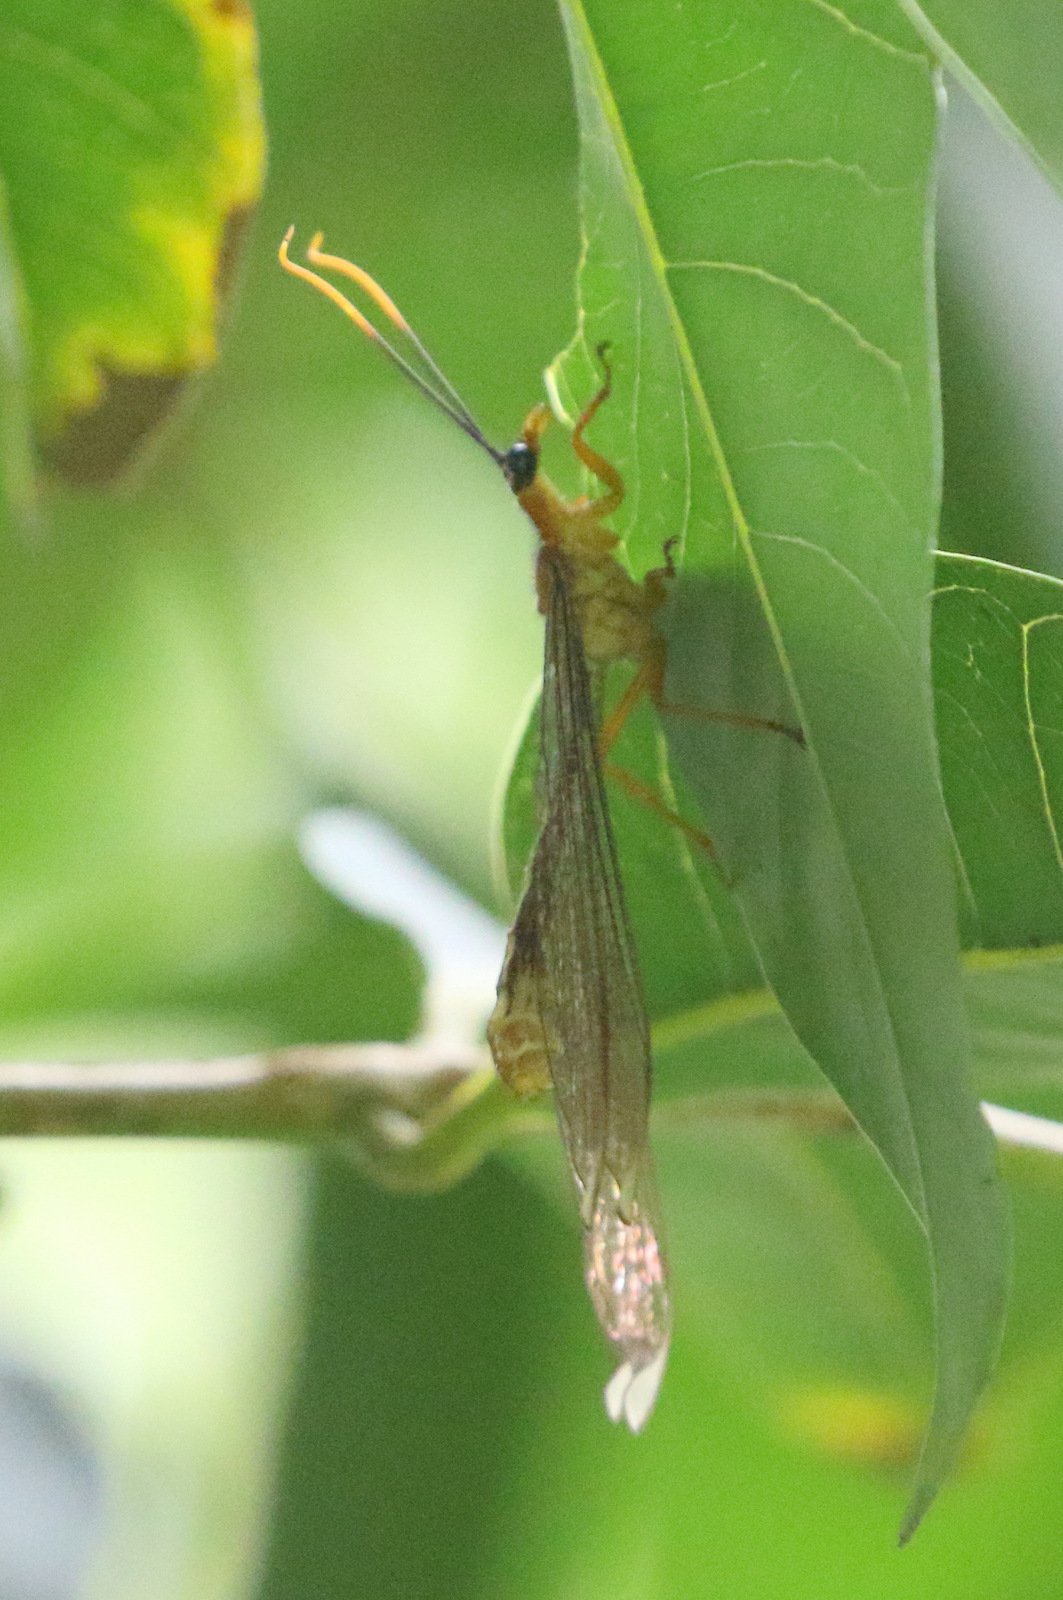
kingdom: Animalia
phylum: Arthropoda
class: Insecta
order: Neuroptera
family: Nymphidae
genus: Nymphes
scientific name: Nymphes myrmeleonoides
